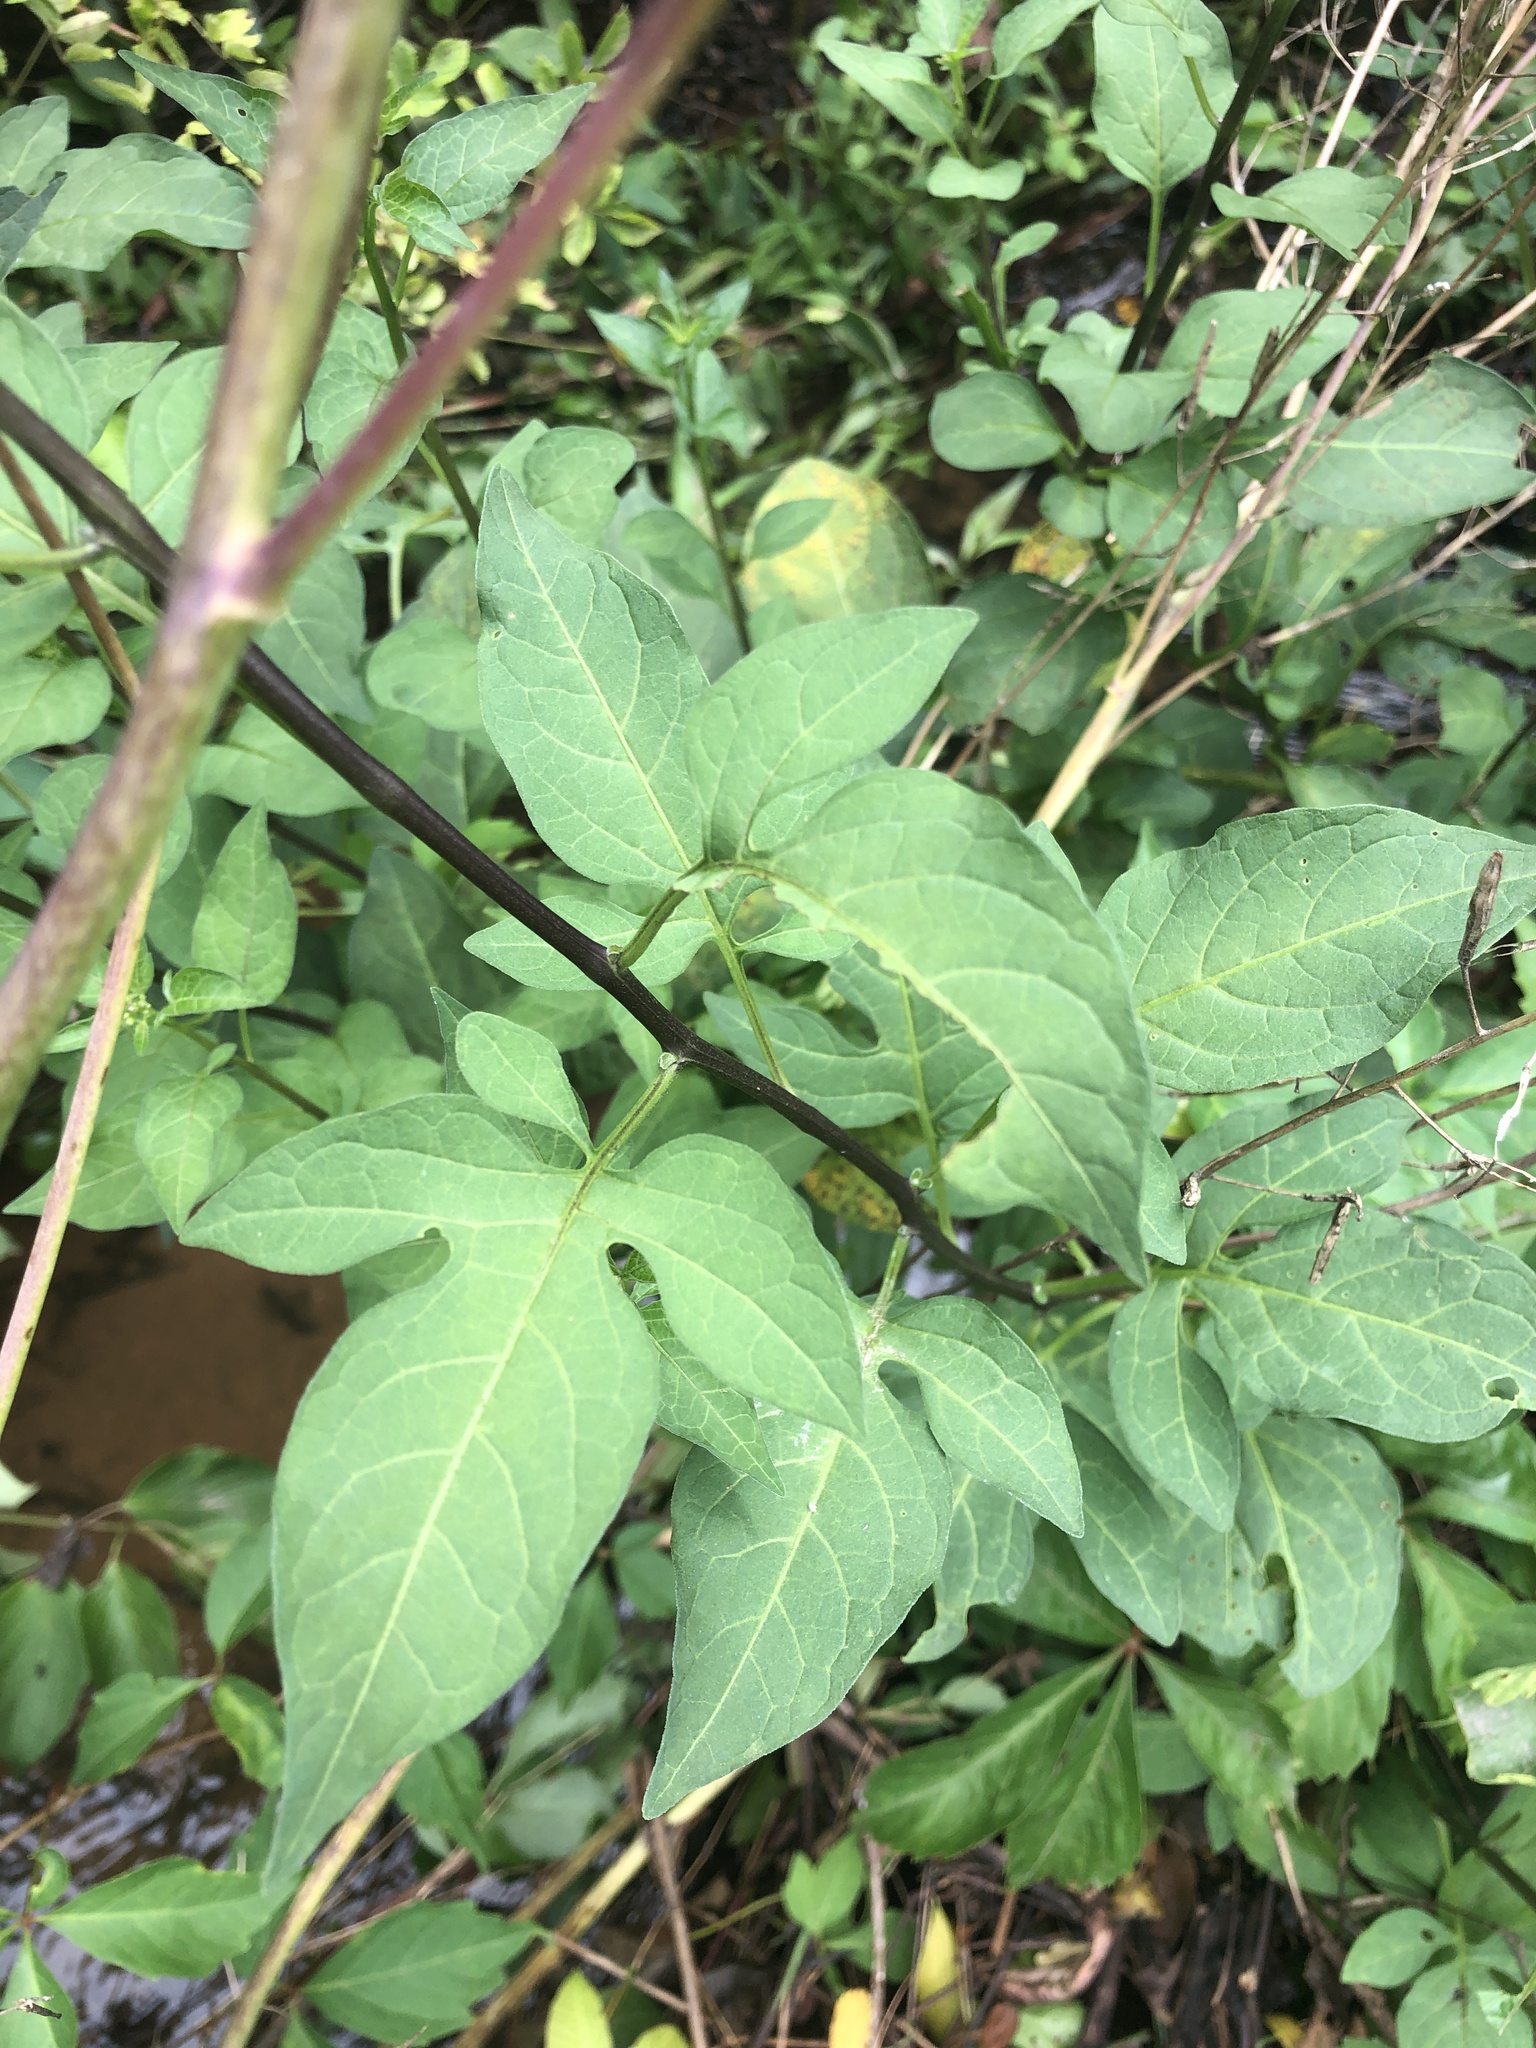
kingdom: Plantae
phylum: Tracheophyta
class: Magnoliopsida
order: Solanales
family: Solanaceae
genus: Solanum
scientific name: Solanum dulcamara
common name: Climbing nightshade
